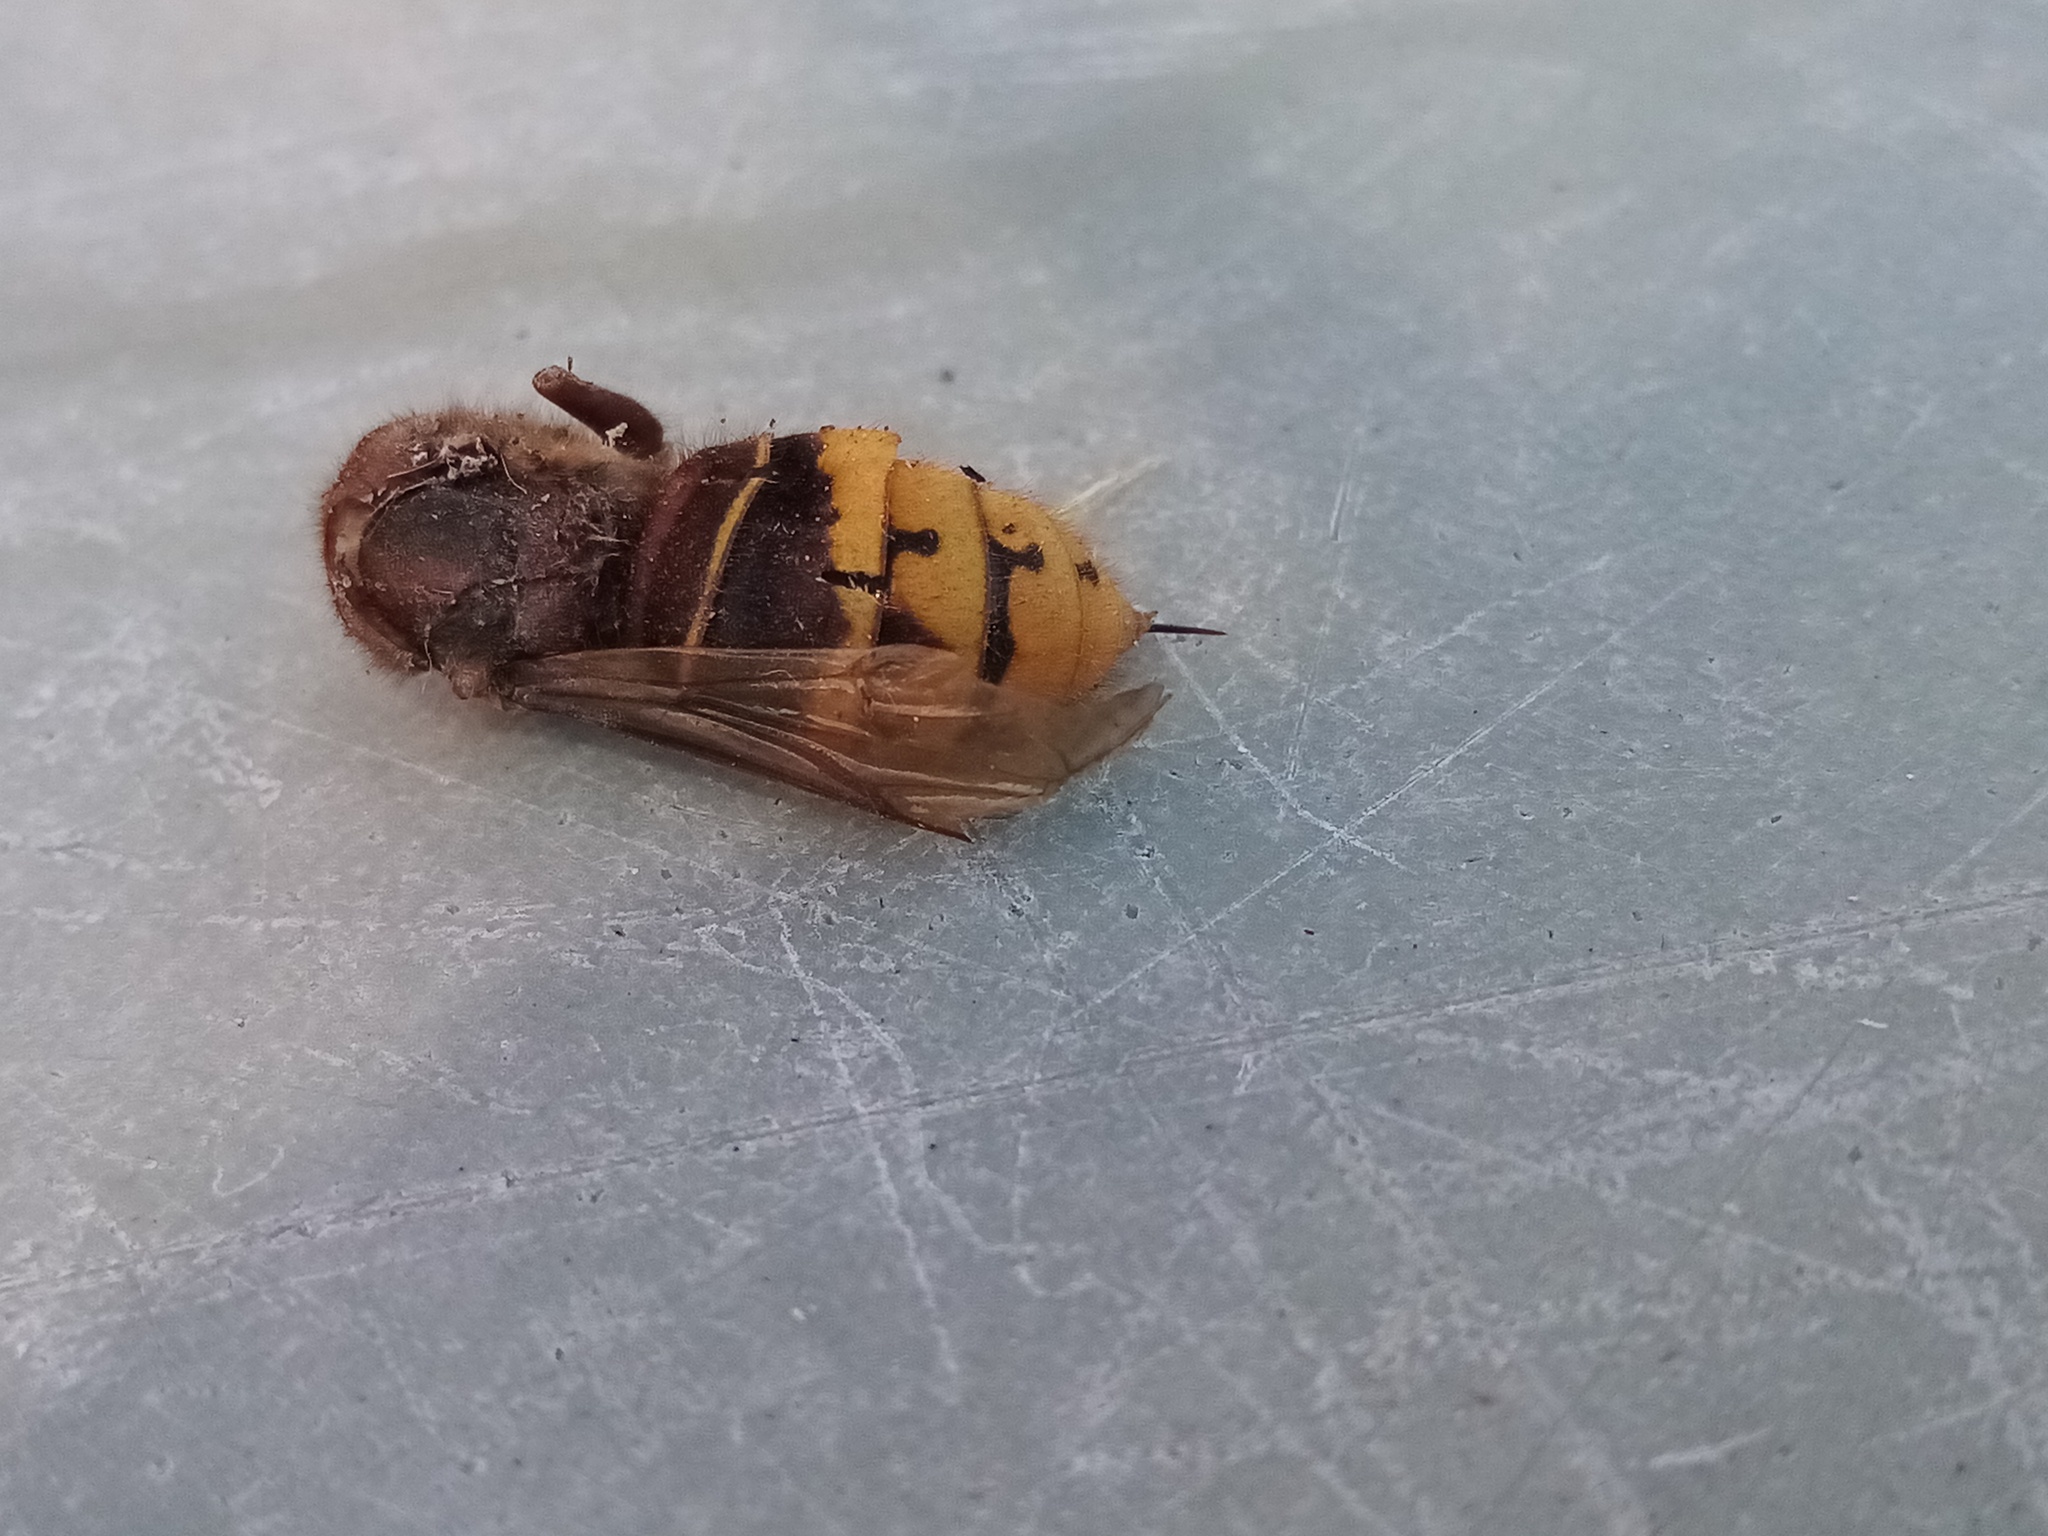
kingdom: Animalia
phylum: Arthropoda
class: Insecta
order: Hymenoptera
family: Vespidae
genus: Vespa
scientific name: Vespa crabro
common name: Hornet
